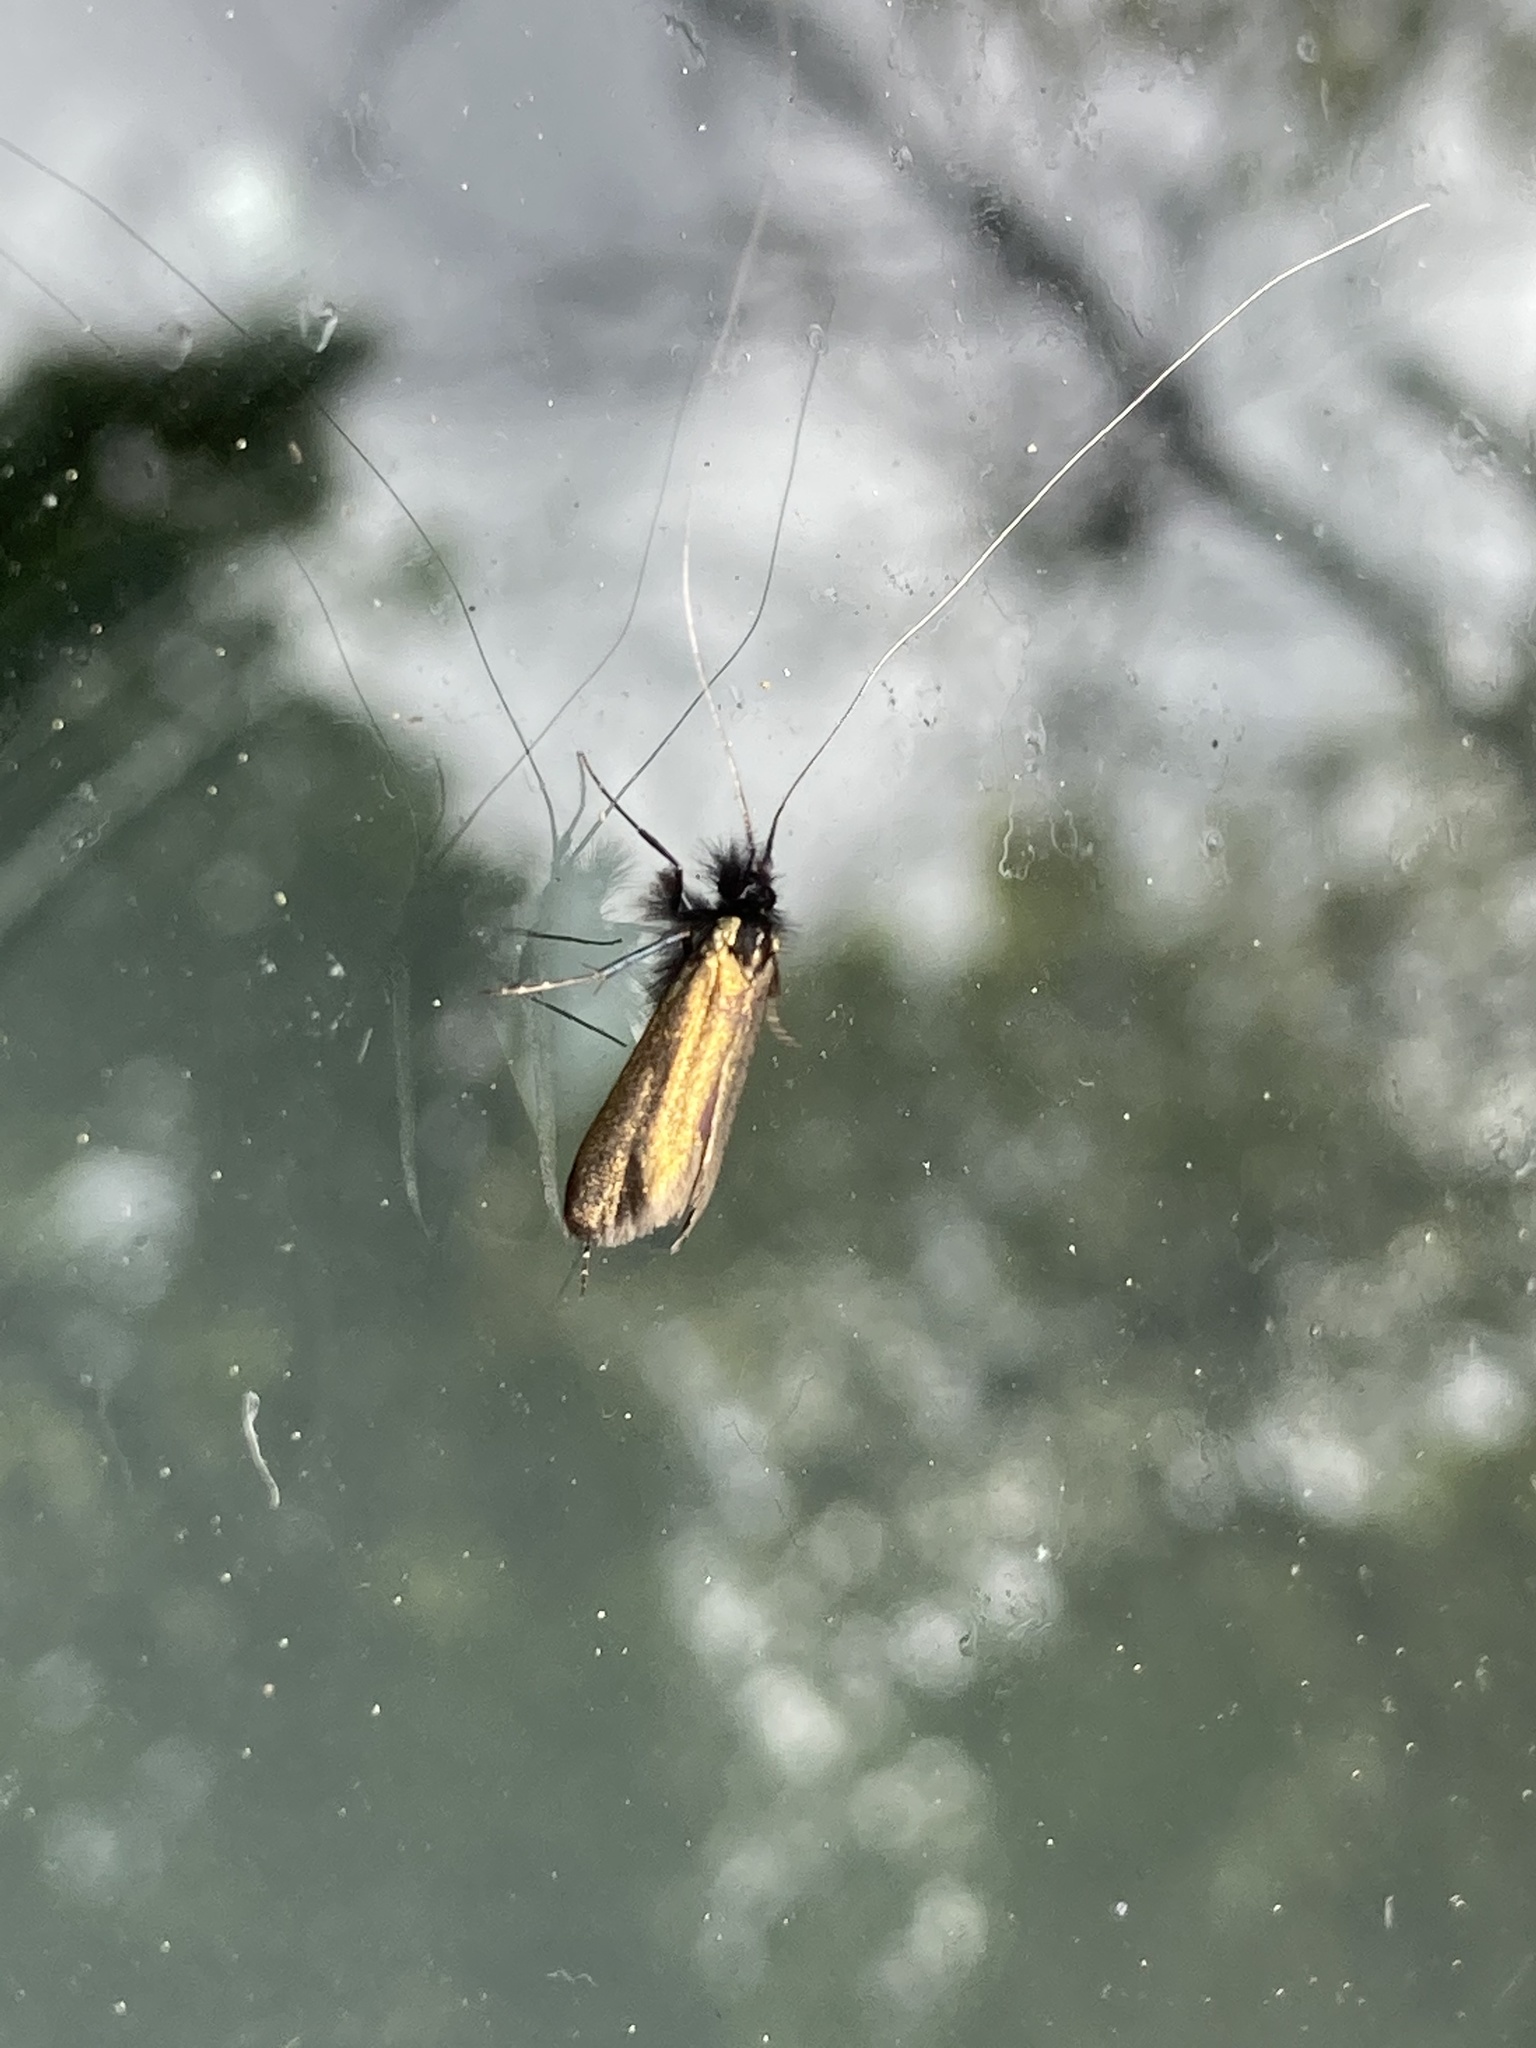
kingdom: Animalia
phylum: Arthropoda
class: Insecta
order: Lepidoptera
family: Adelidae
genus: Adela
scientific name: Adela viridella
